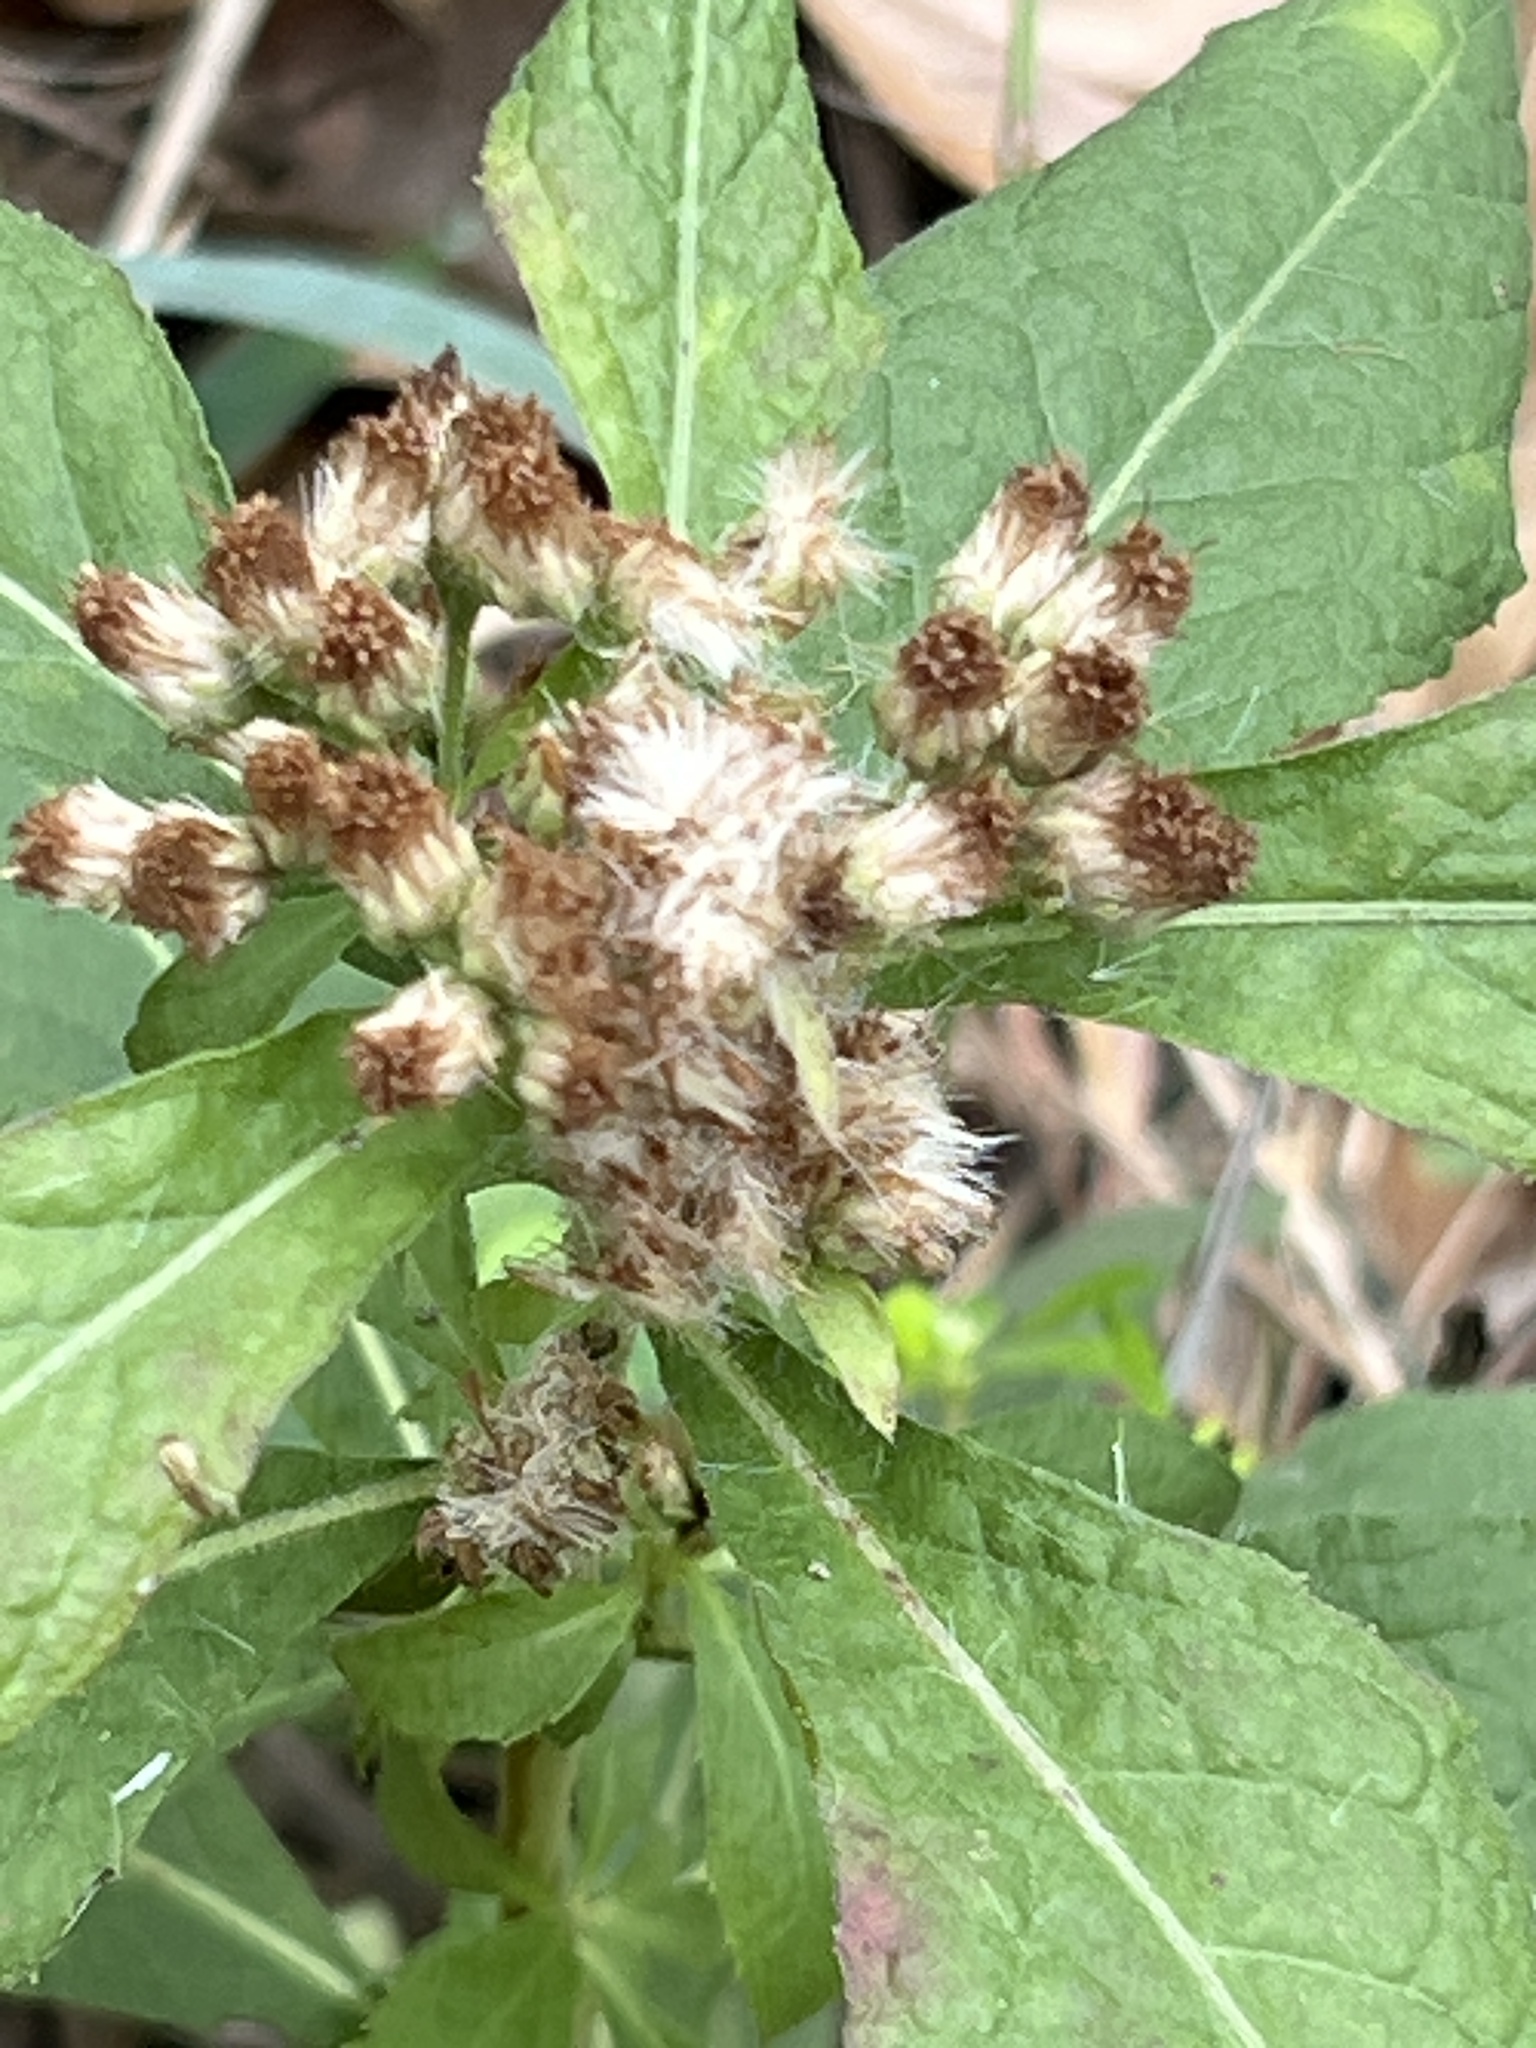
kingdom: Plantae
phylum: Tracheophyta
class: Magnoliopsida
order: Asterales
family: Asteraceae
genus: Pluchea
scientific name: Pluchea camphorata
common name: Camphor pluchea
